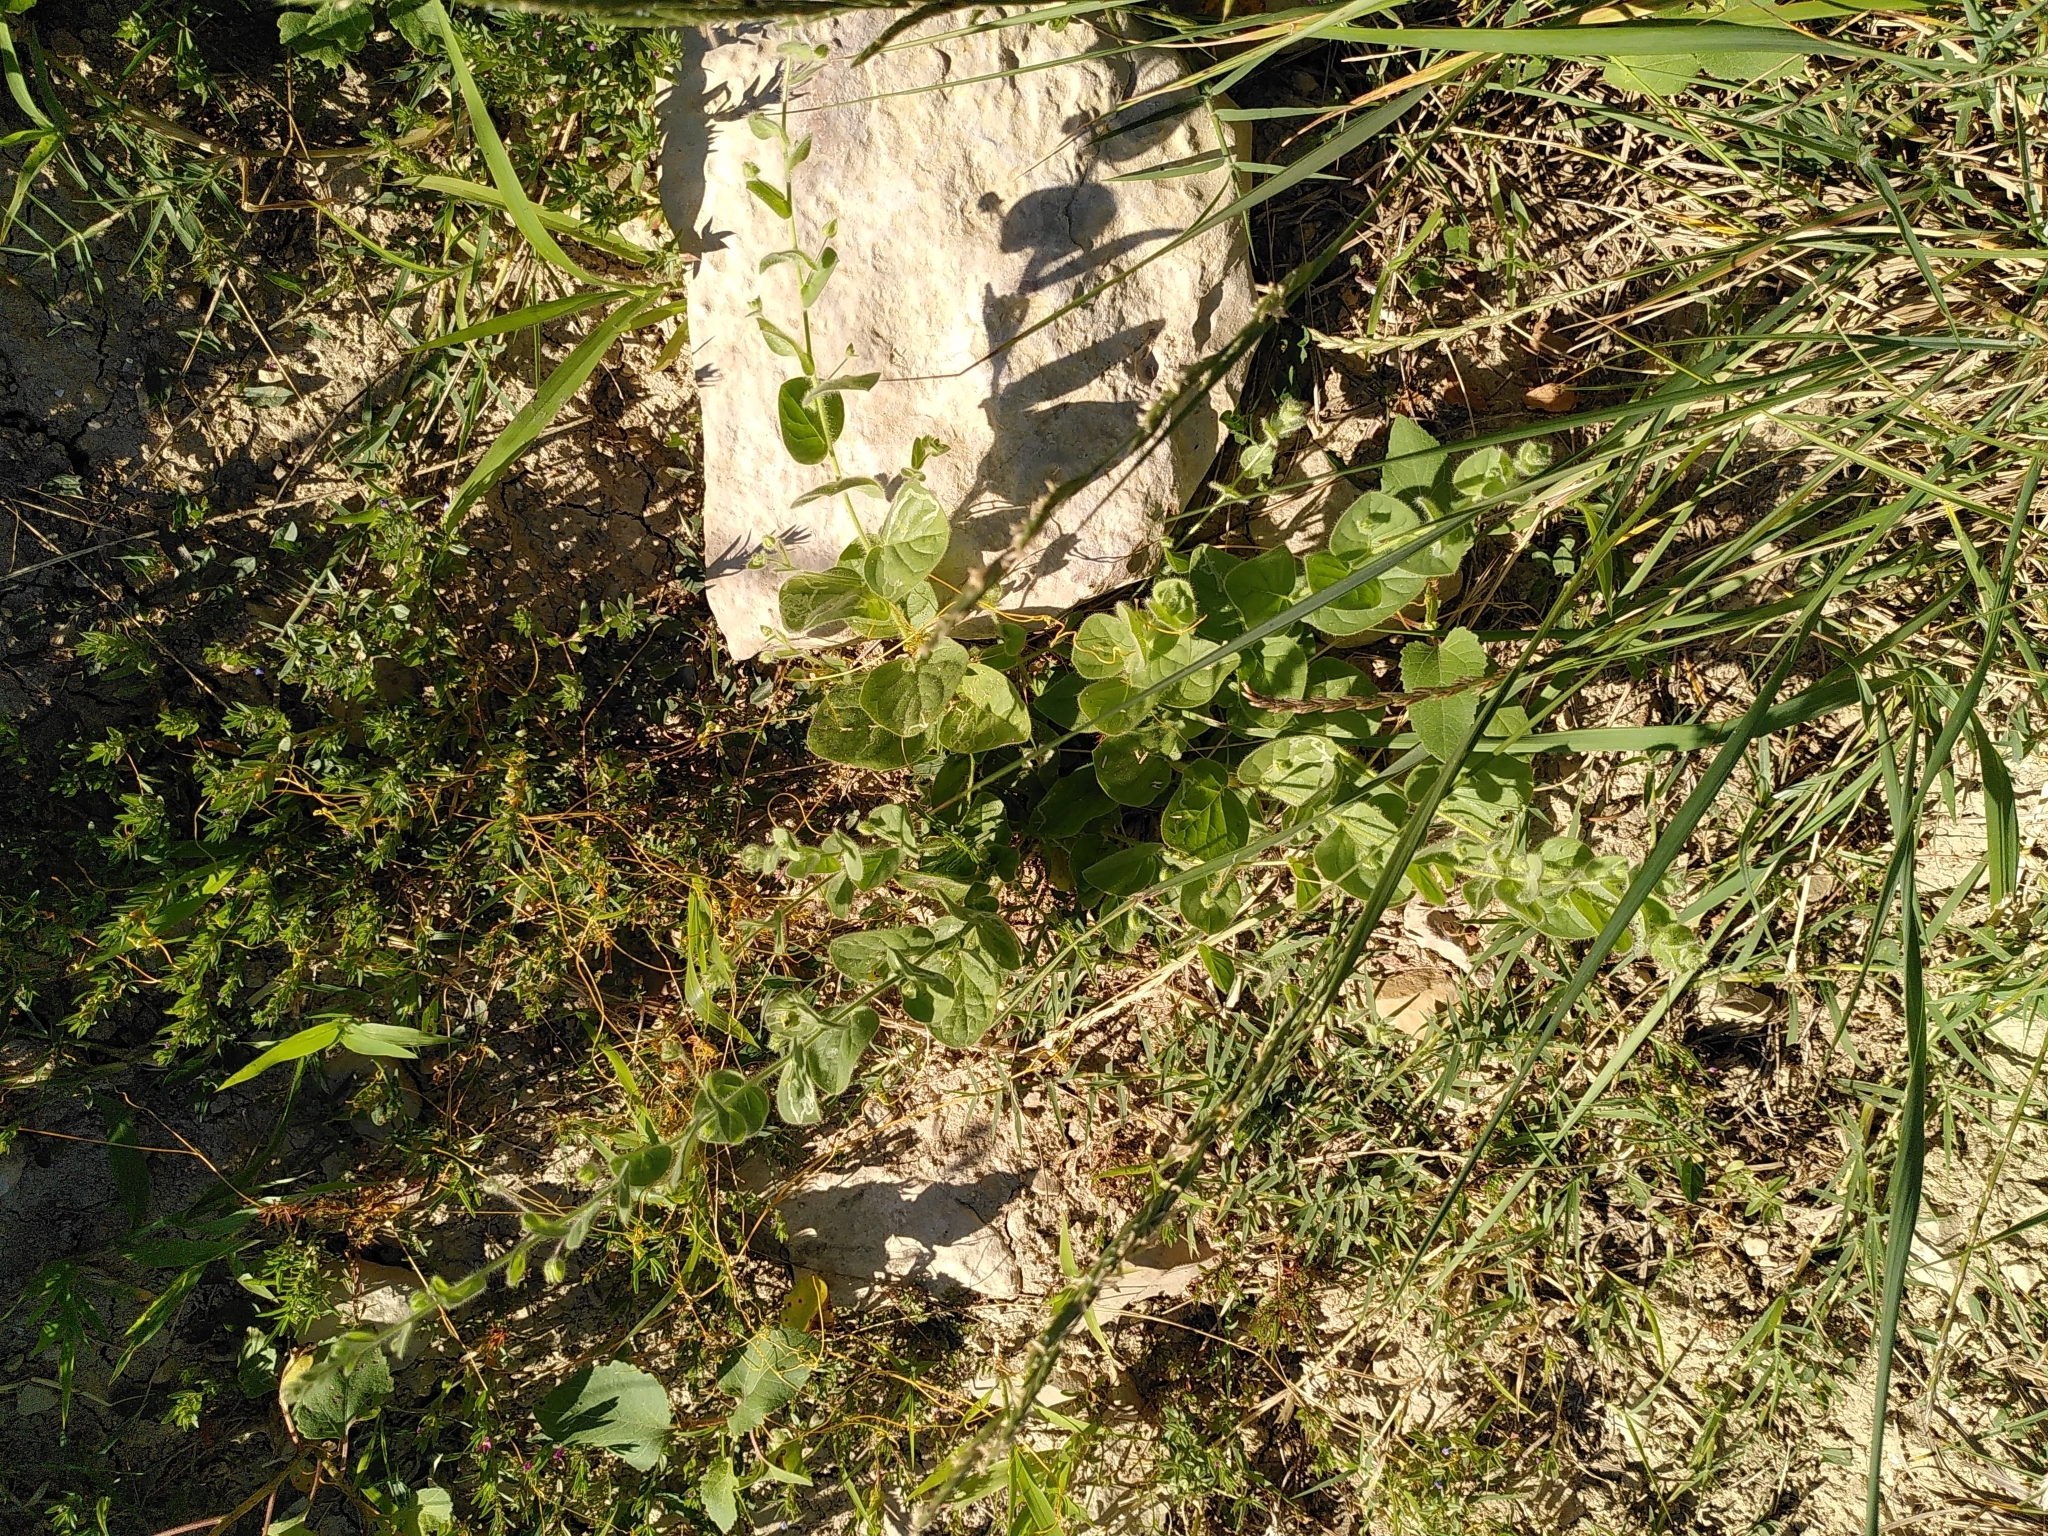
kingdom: Plantae
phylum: Tracheophyta
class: Magnoliopsida
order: Lamiales
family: Plantaginaceae
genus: Kickxia
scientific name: Kickxia spuria
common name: Round-leaved fluellen
